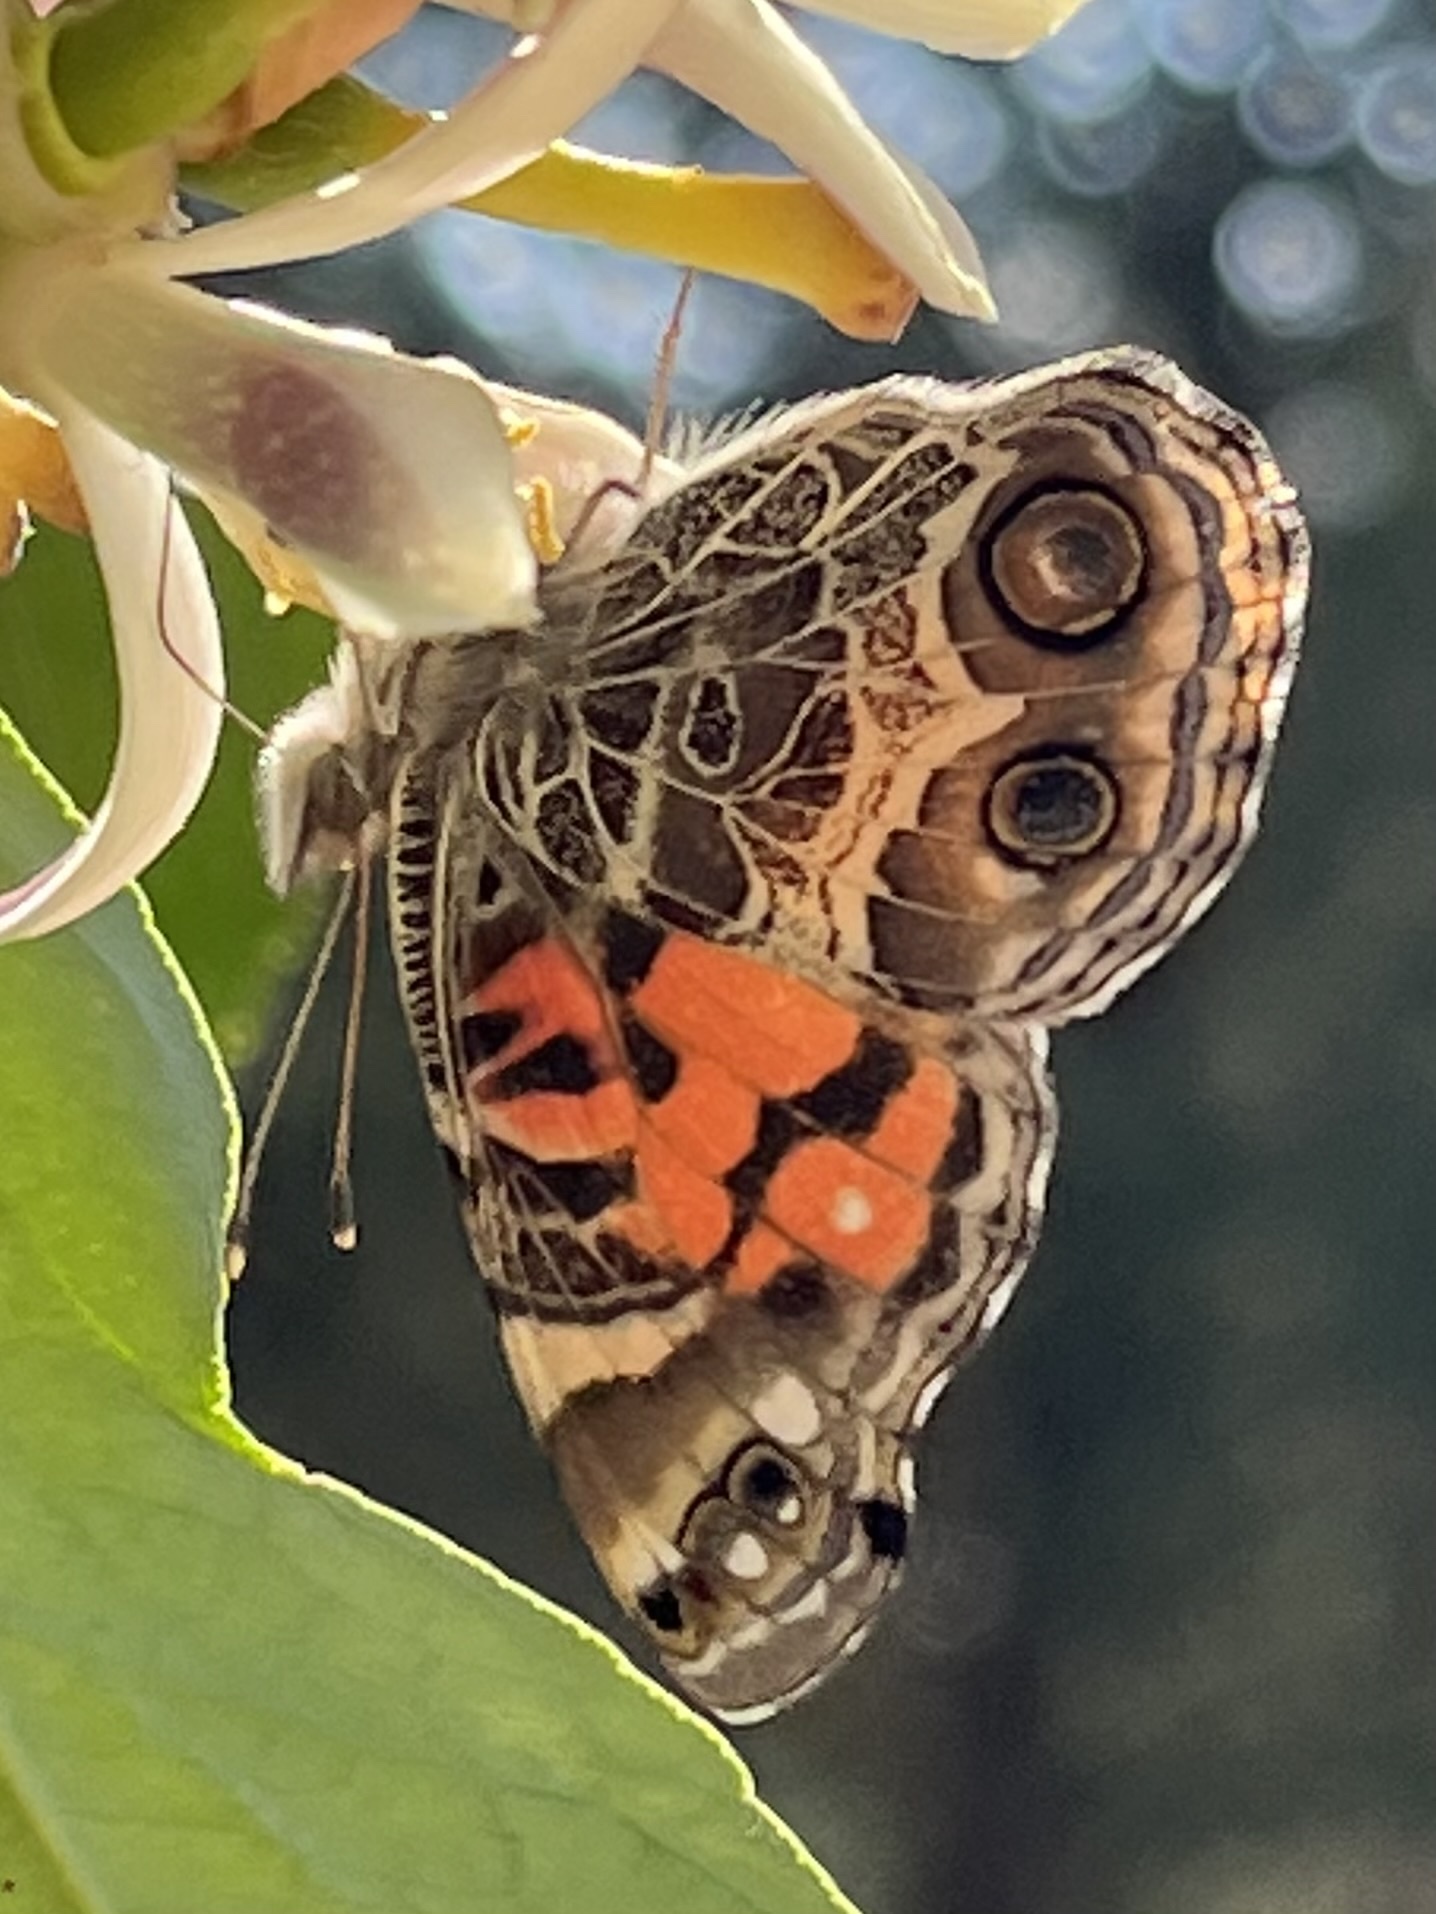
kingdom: Animalia
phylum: Arthropoda
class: Insecta
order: Lepidoptera
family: Nymphalidae
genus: Vanessa
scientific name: Vanessa virginiensis
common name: American lady
